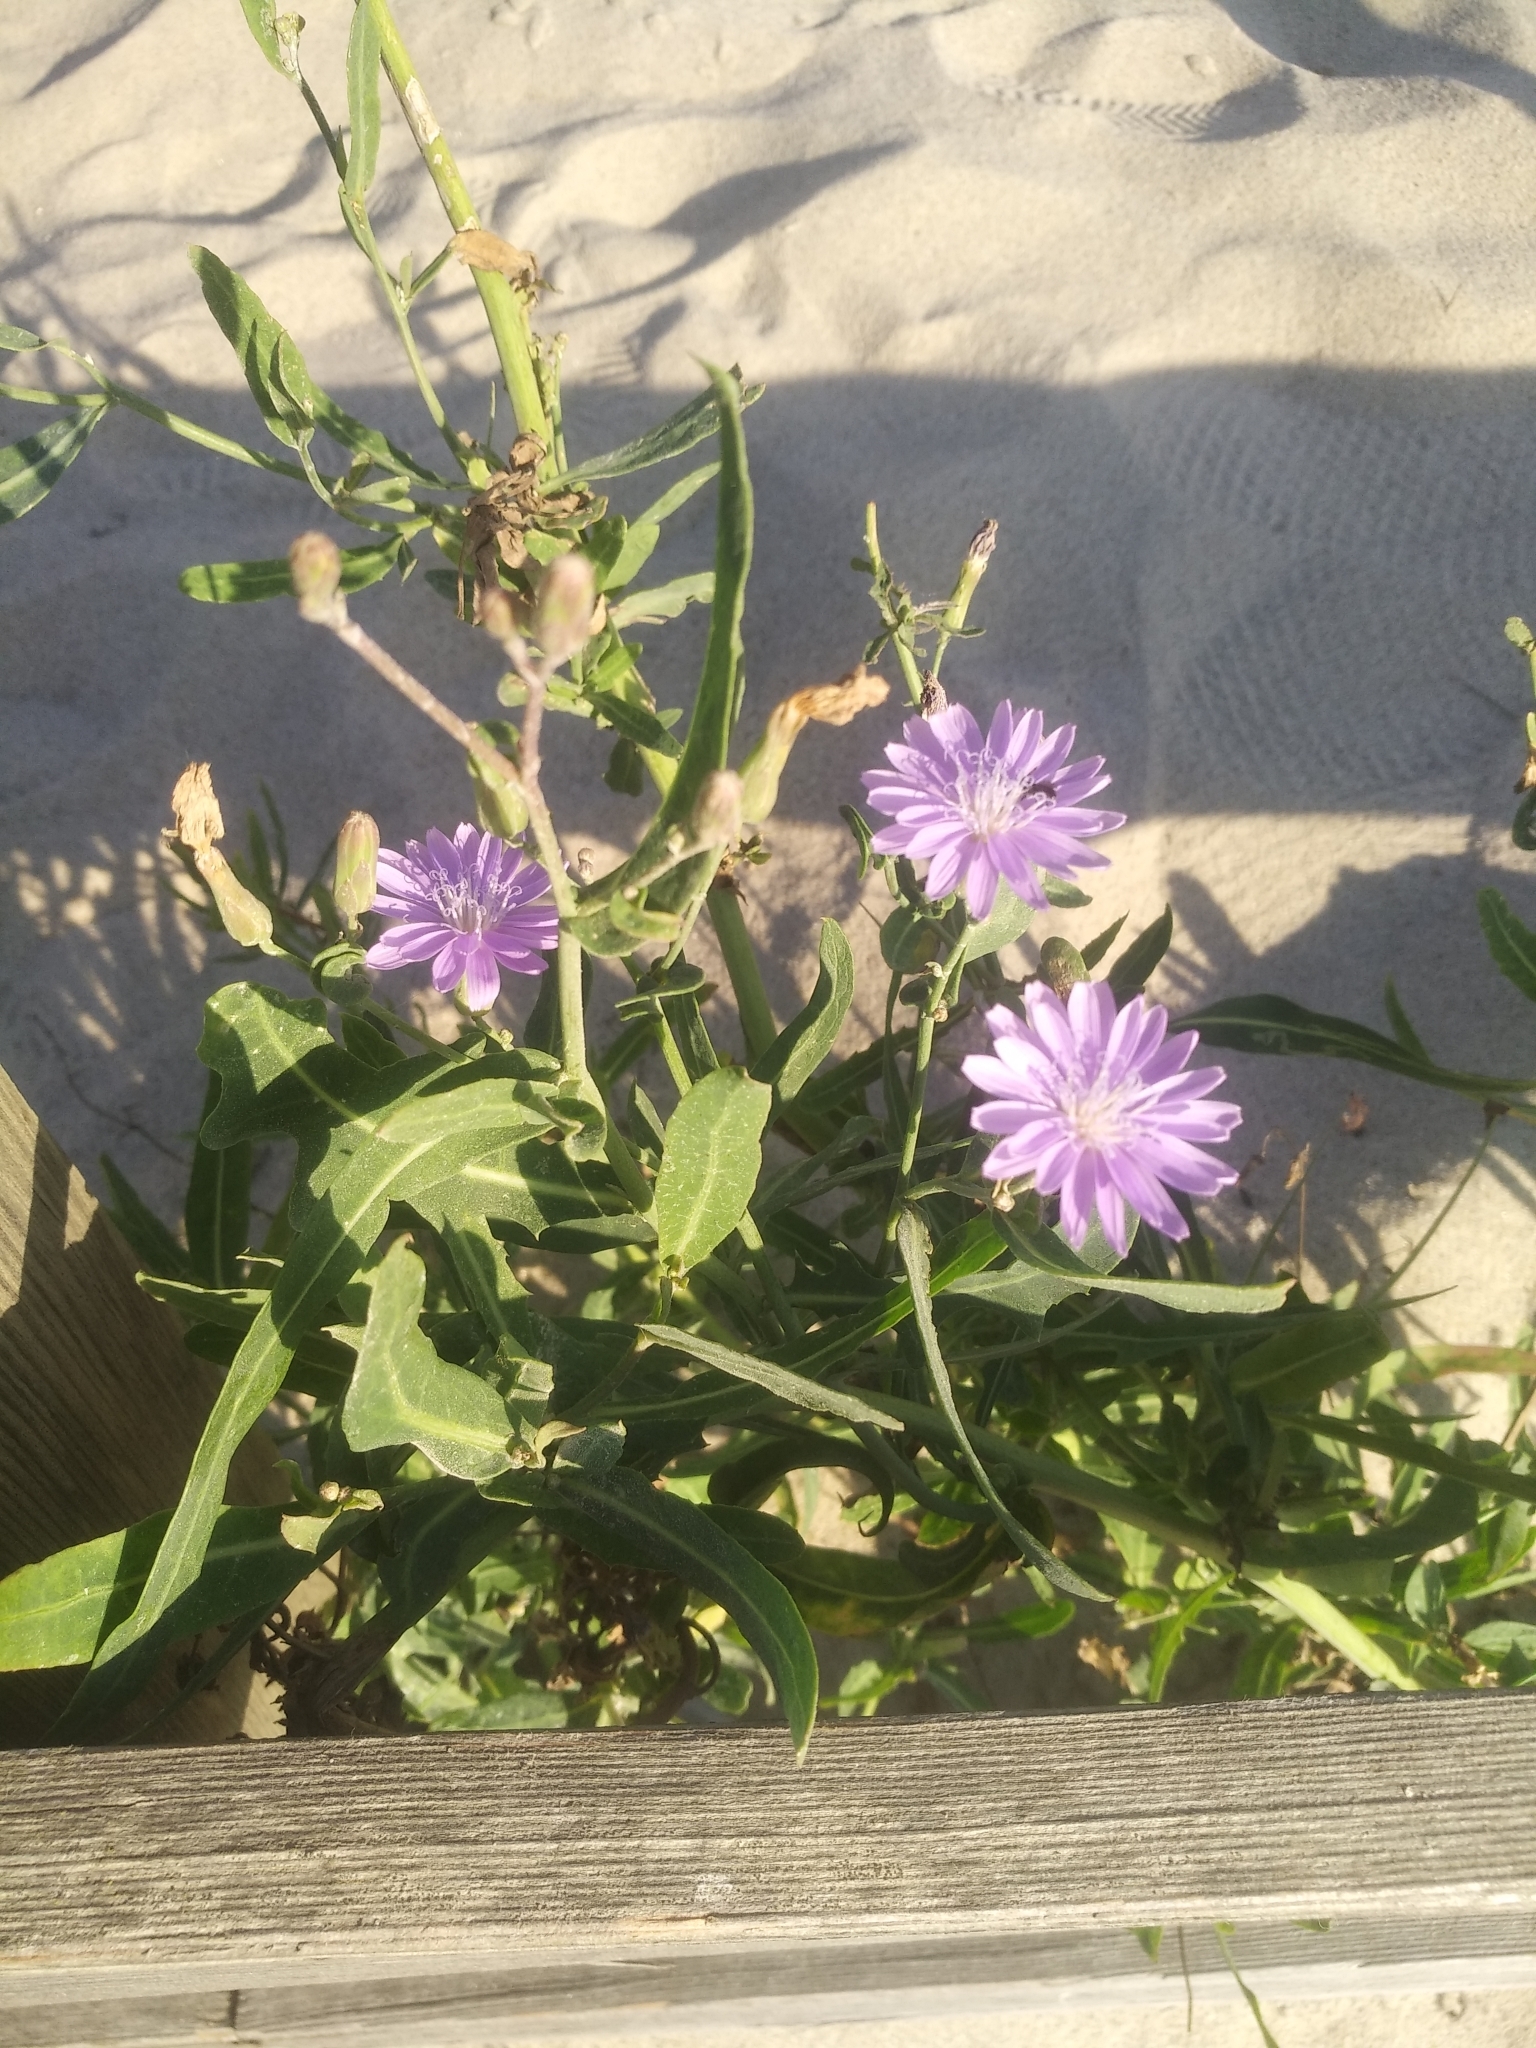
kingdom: Plantae
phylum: Tracheophyta
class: Magnoliopsida
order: Asterales
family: Asteraceae
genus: Lactuca
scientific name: Lactuca tatarica
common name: Blue lettuce
